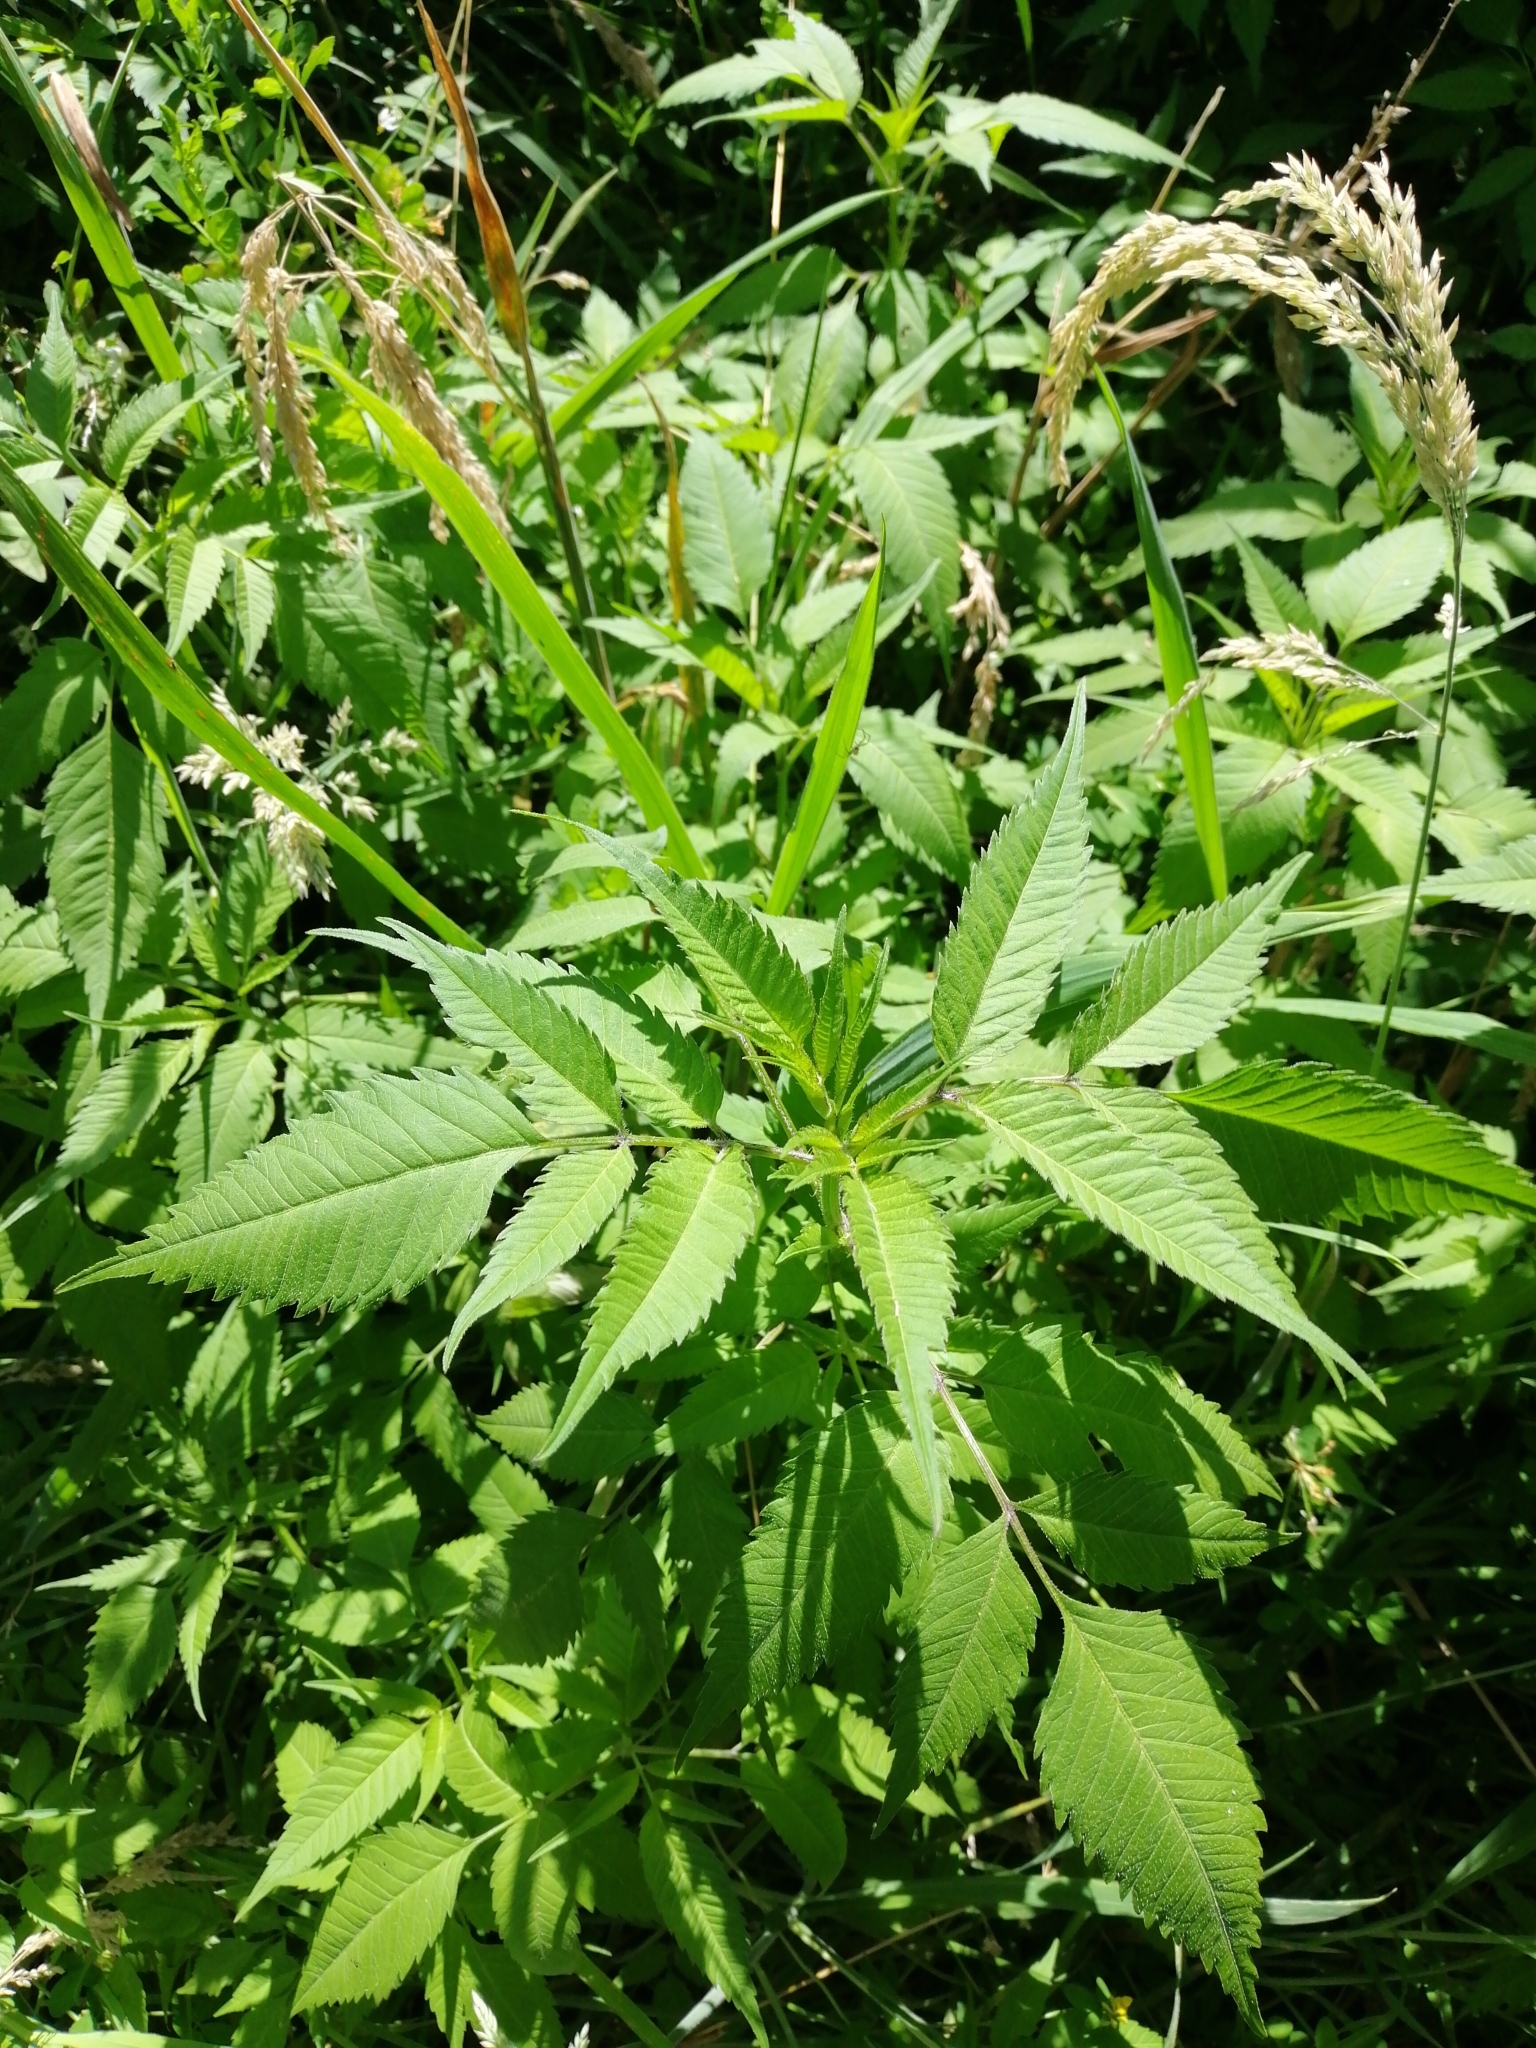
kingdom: Plantae
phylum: Tracheophyta
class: Magnoliopsida
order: Asterales
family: Asteraceae
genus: Bidens
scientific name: Bidens frondosa
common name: Beggarticks
